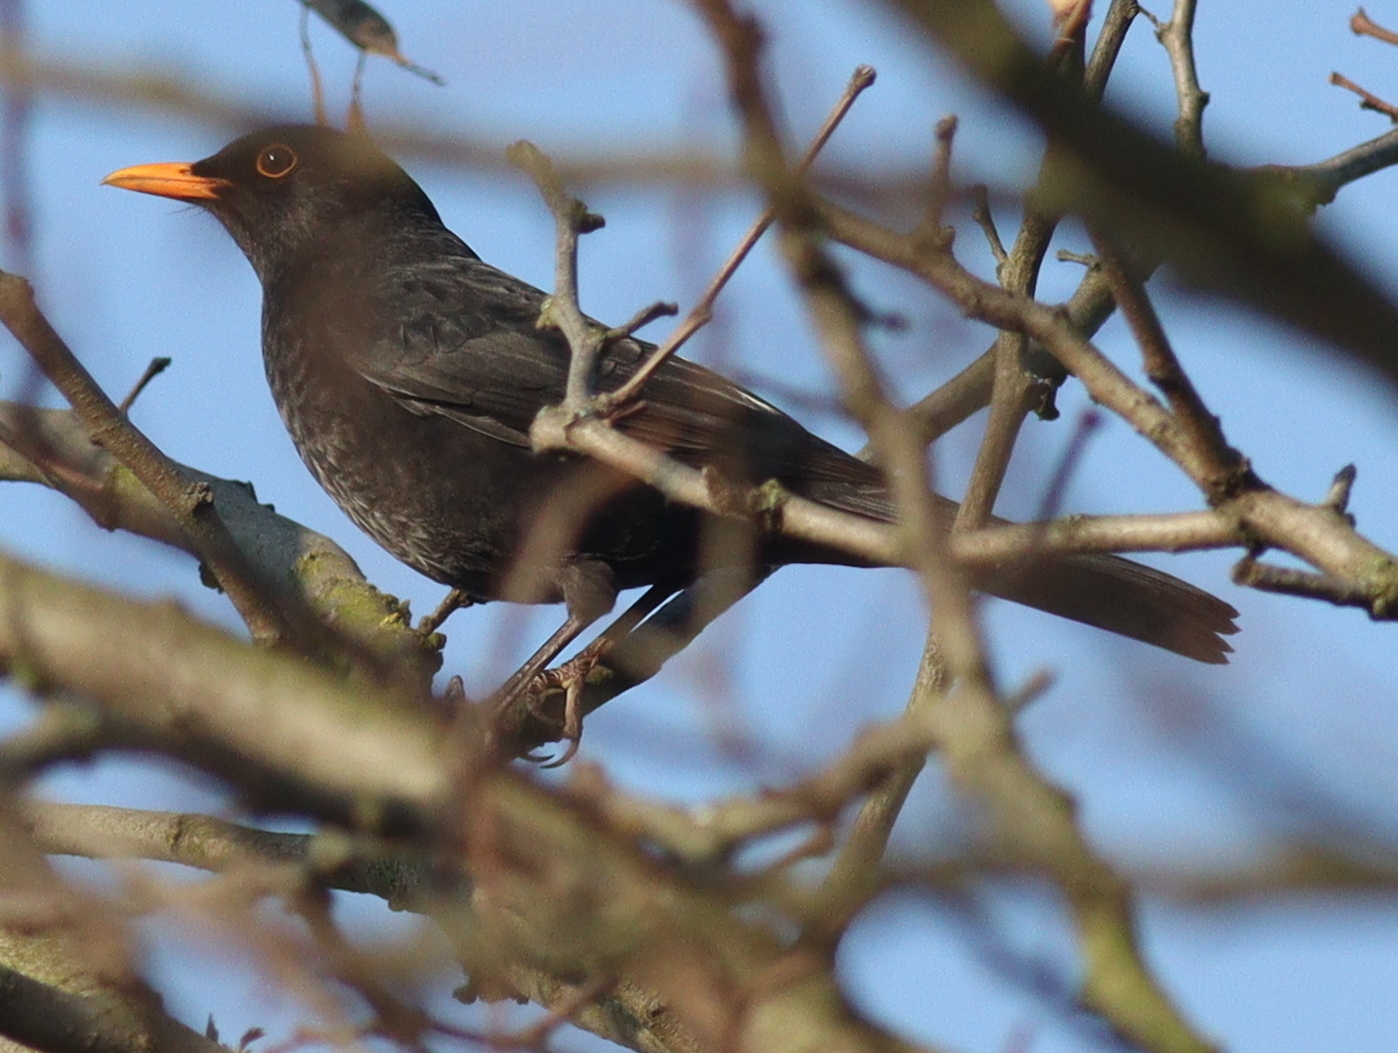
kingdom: Animalia
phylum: Chordata
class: Aves
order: Passeriformes
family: Turdidae
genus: Turdus
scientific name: Turdus merula
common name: Common blackbird
